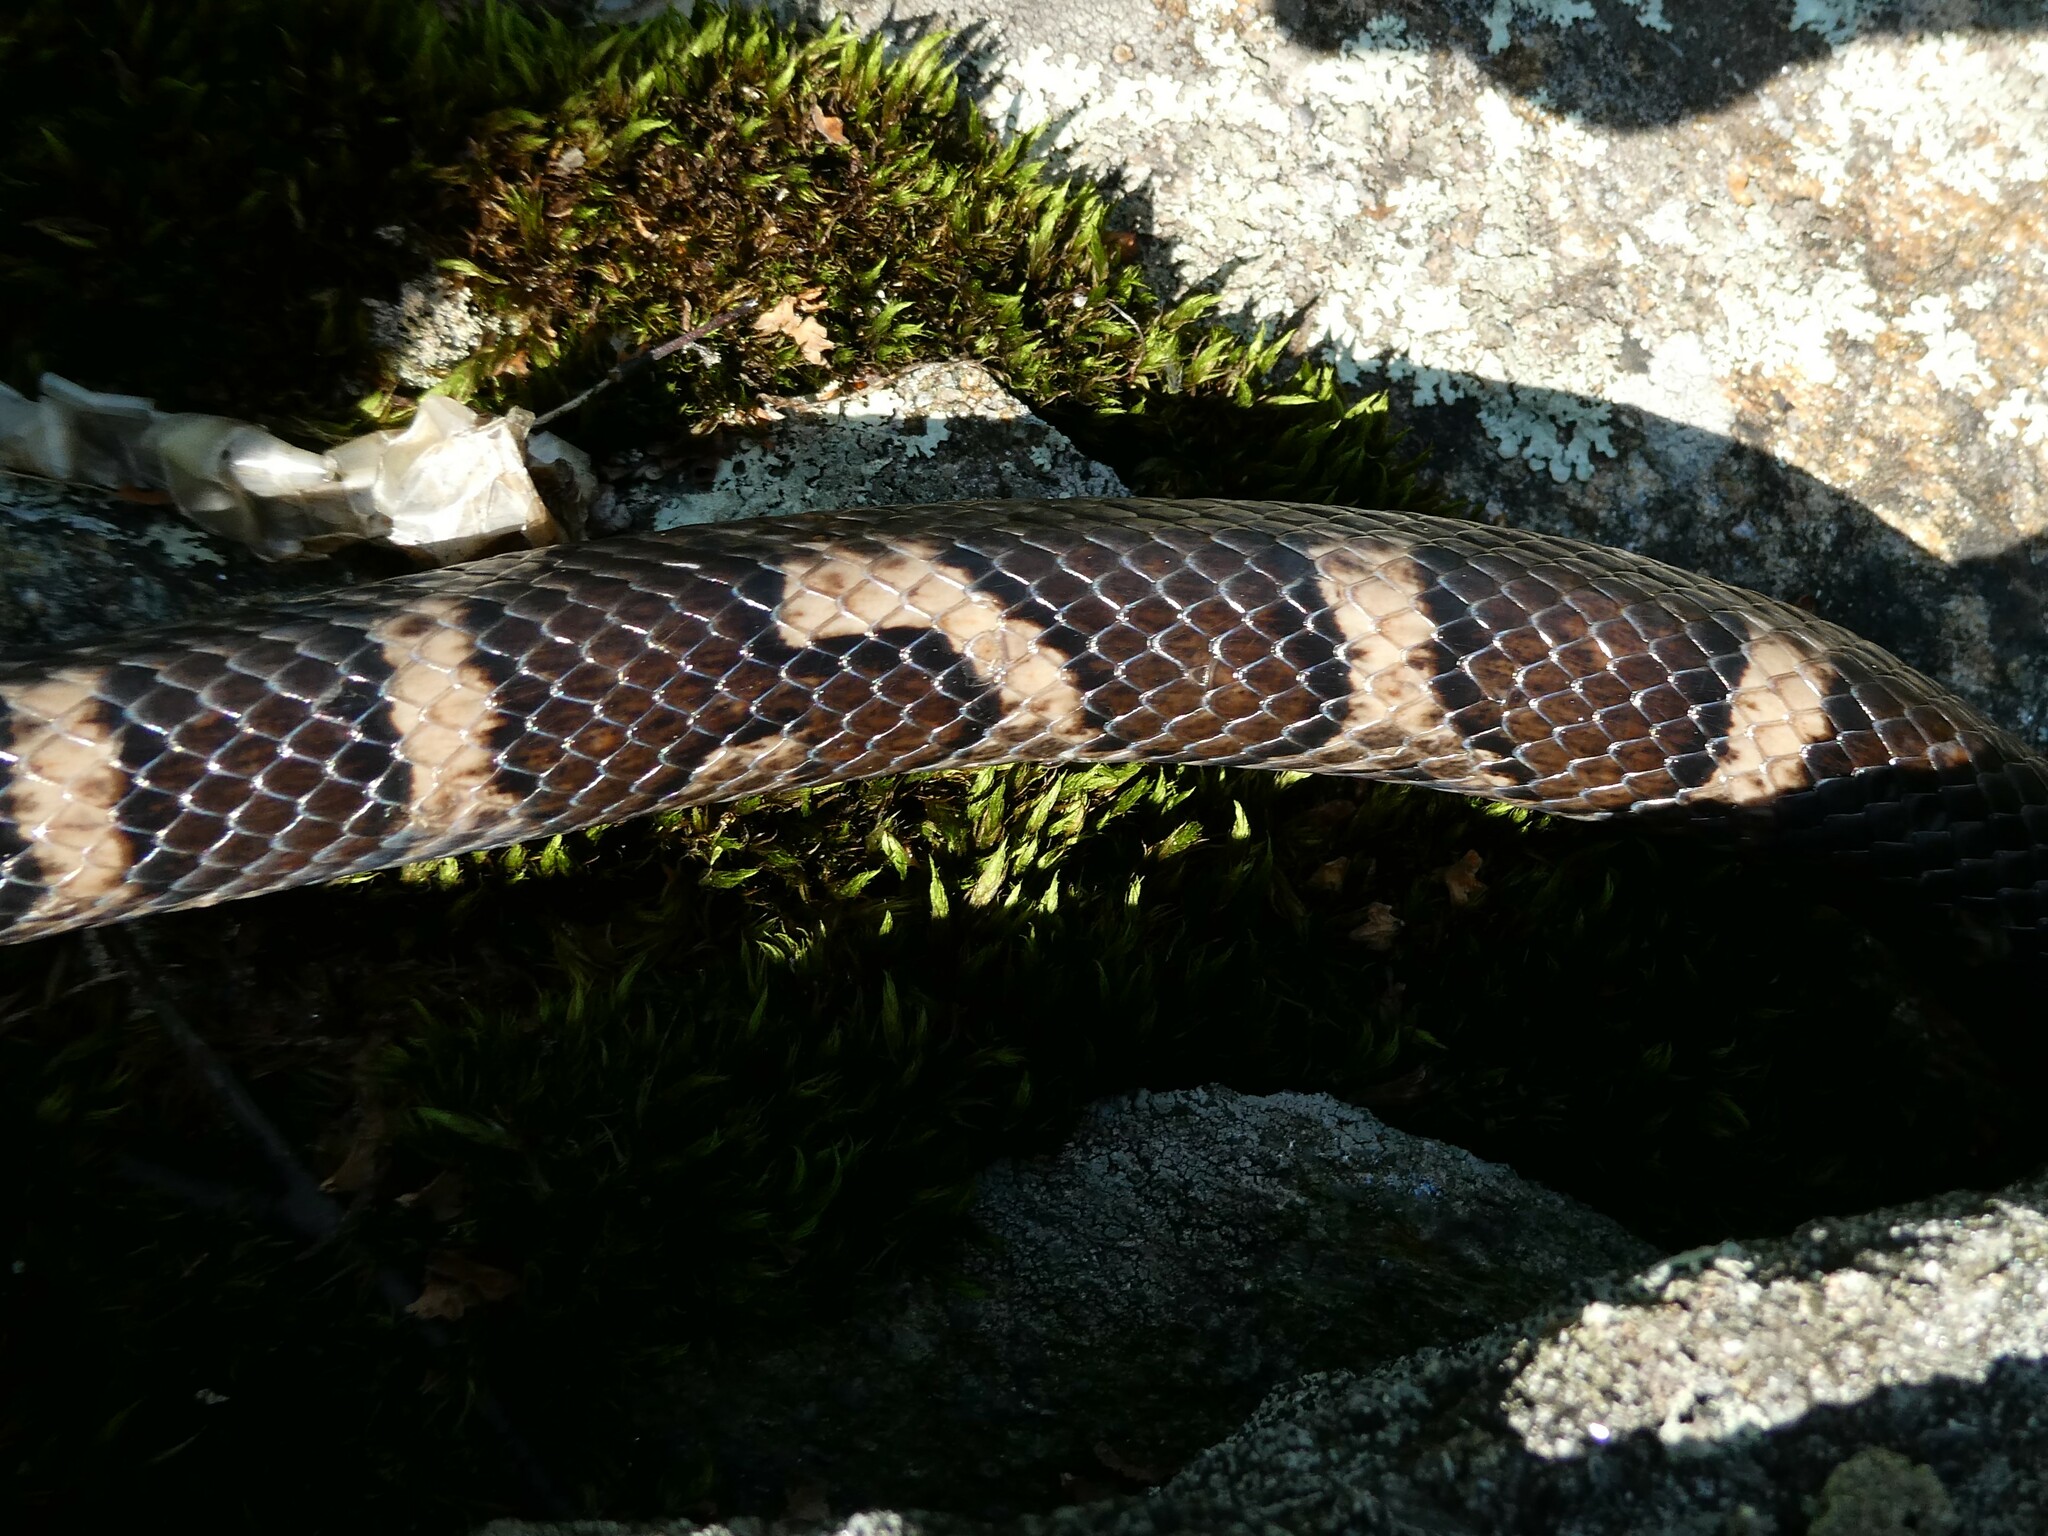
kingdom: Animalia
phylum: Chordata
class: Squamata
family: Colubridae
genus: Lampropeltis
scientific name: Lampropeltis triangulum
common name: Eastern milksnake
